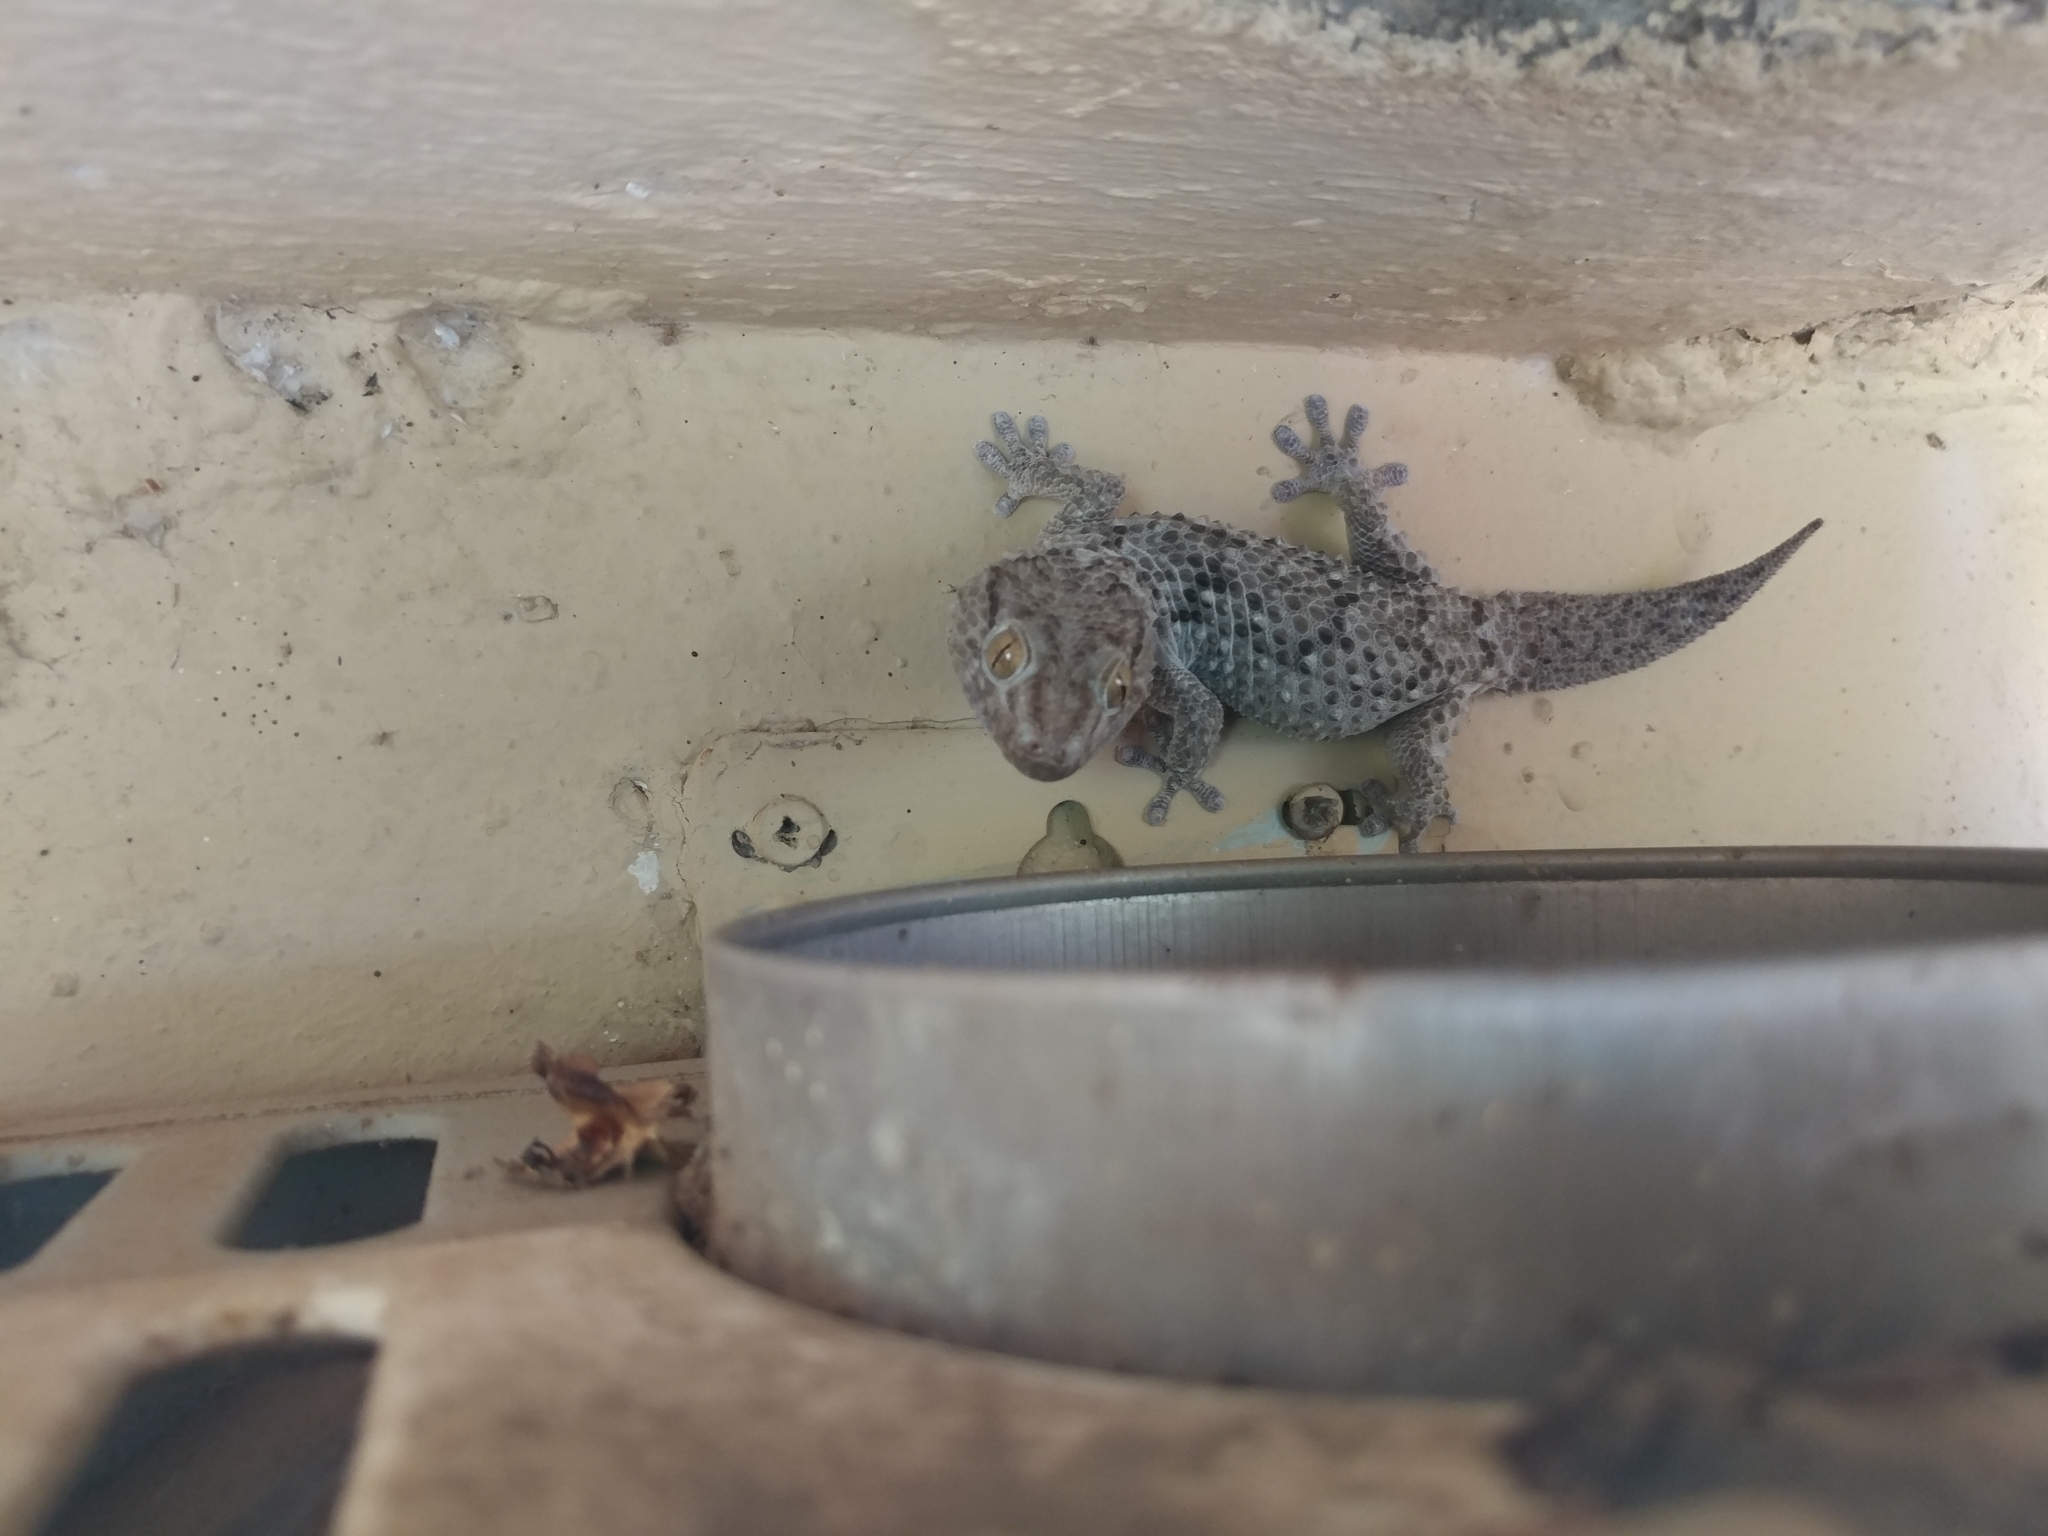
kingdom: Animalia
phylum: Chordata
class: Squamata
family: Gekkonidae
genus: Chondrodactylus
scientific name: Chondrodactylus turneri
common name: Turner’s gecko
